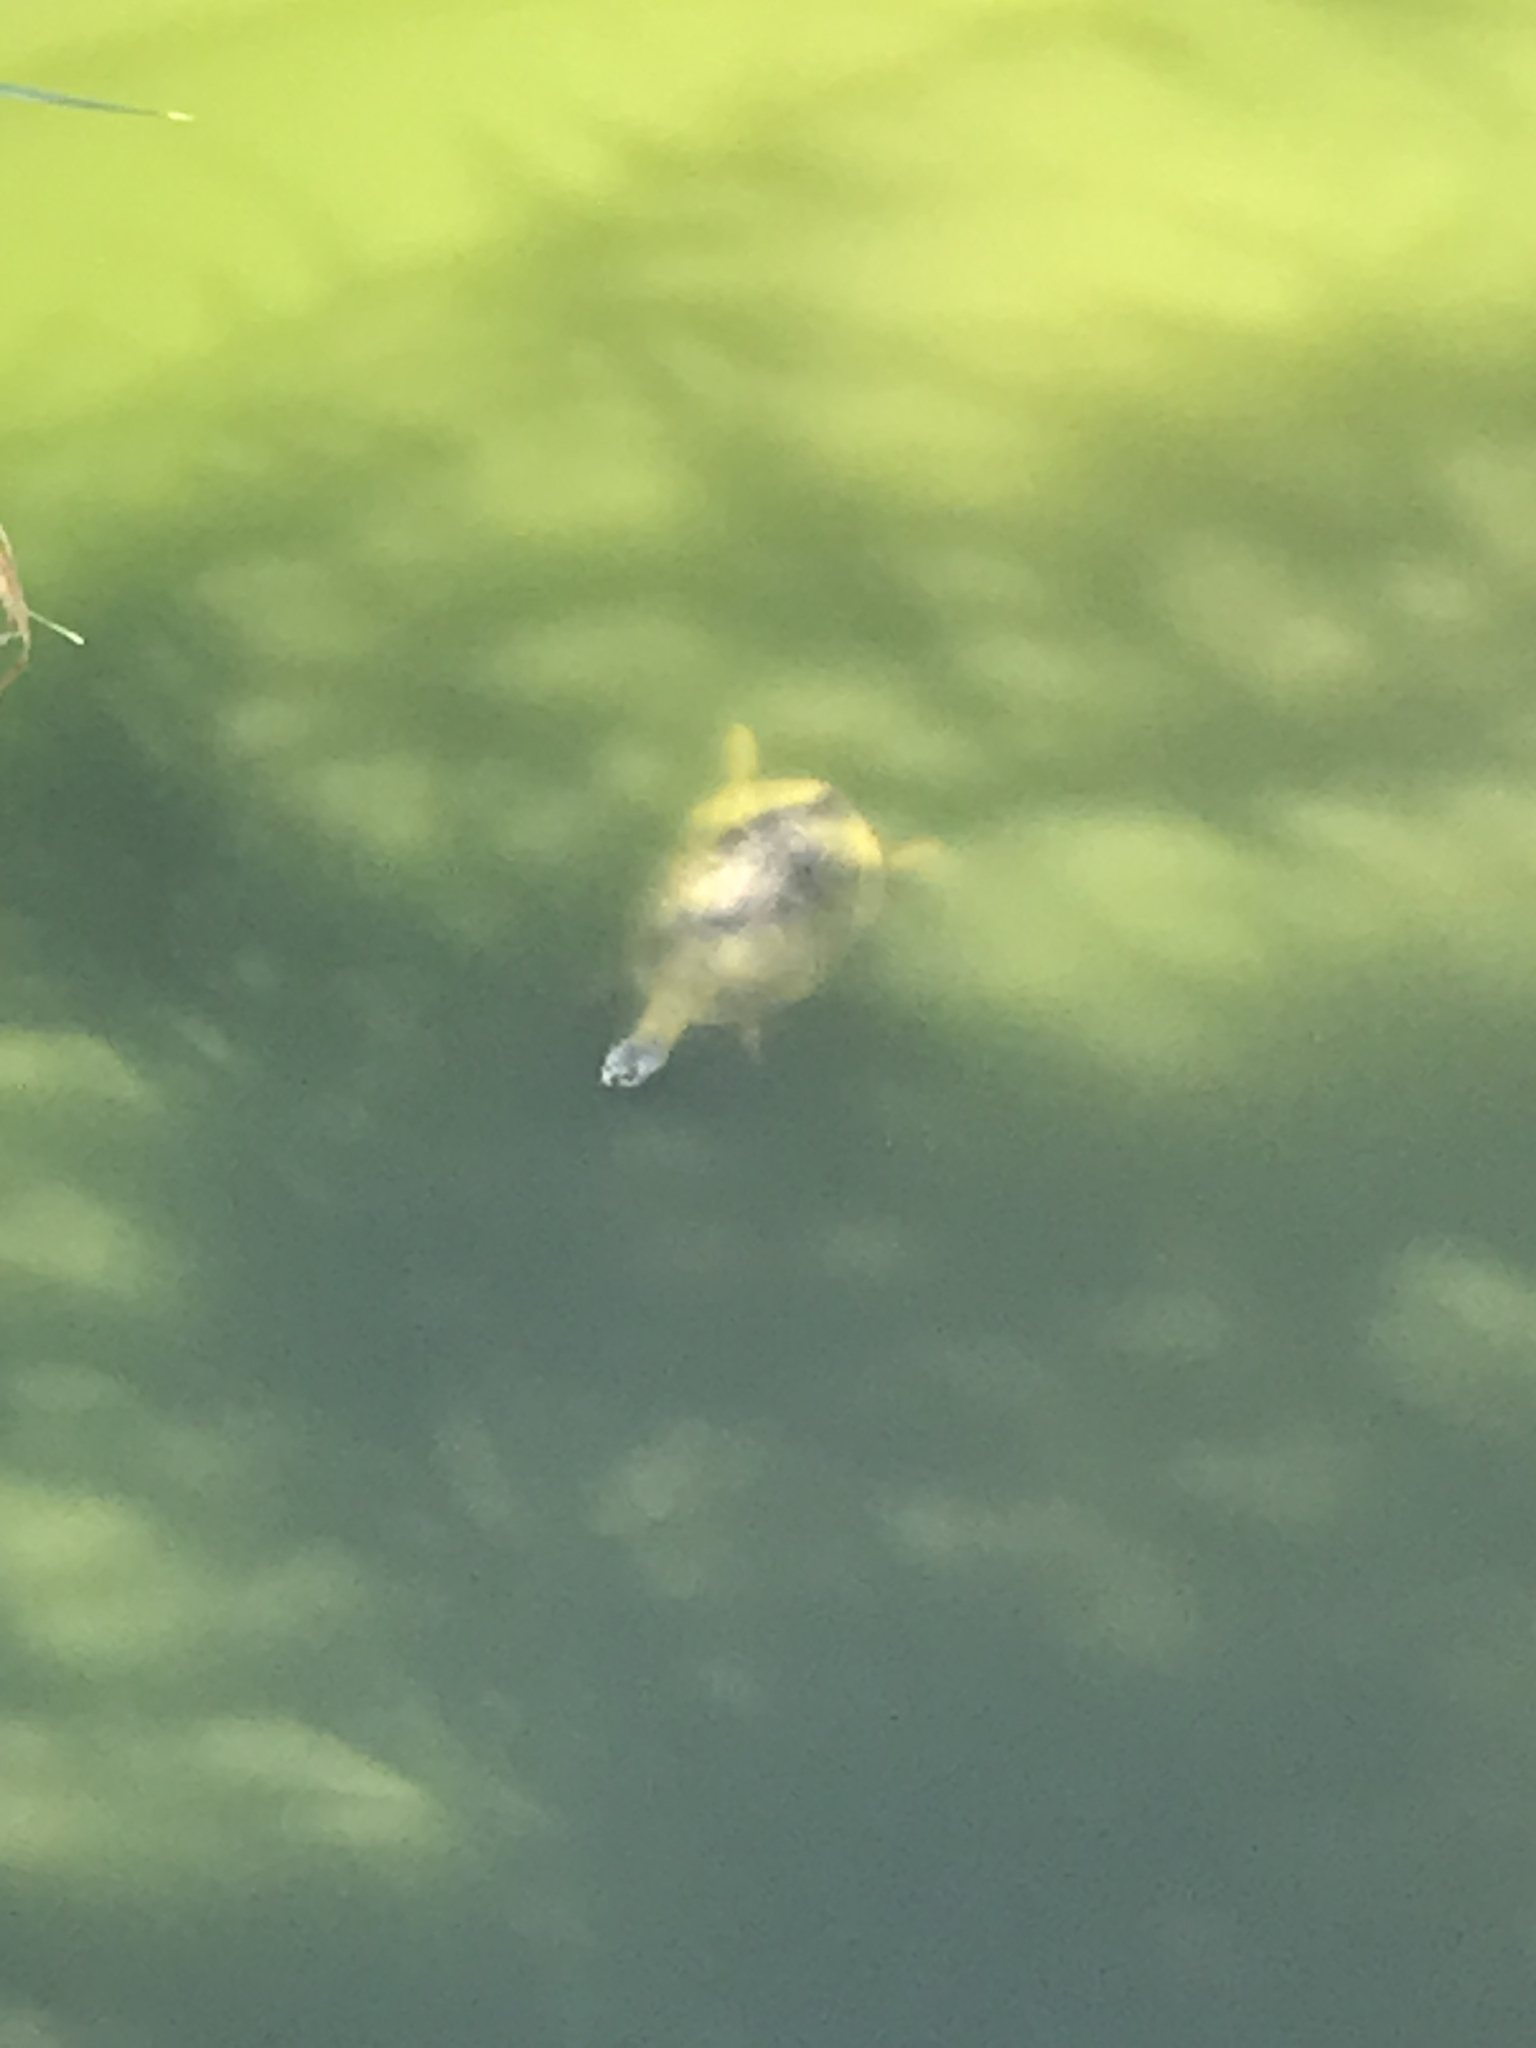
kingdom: Animalia
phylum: Chordata
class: Testudines
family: Chelidae
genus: Phrynops
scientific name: Phrynops hilarii
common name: Side-necked turtle of saint hillaire
